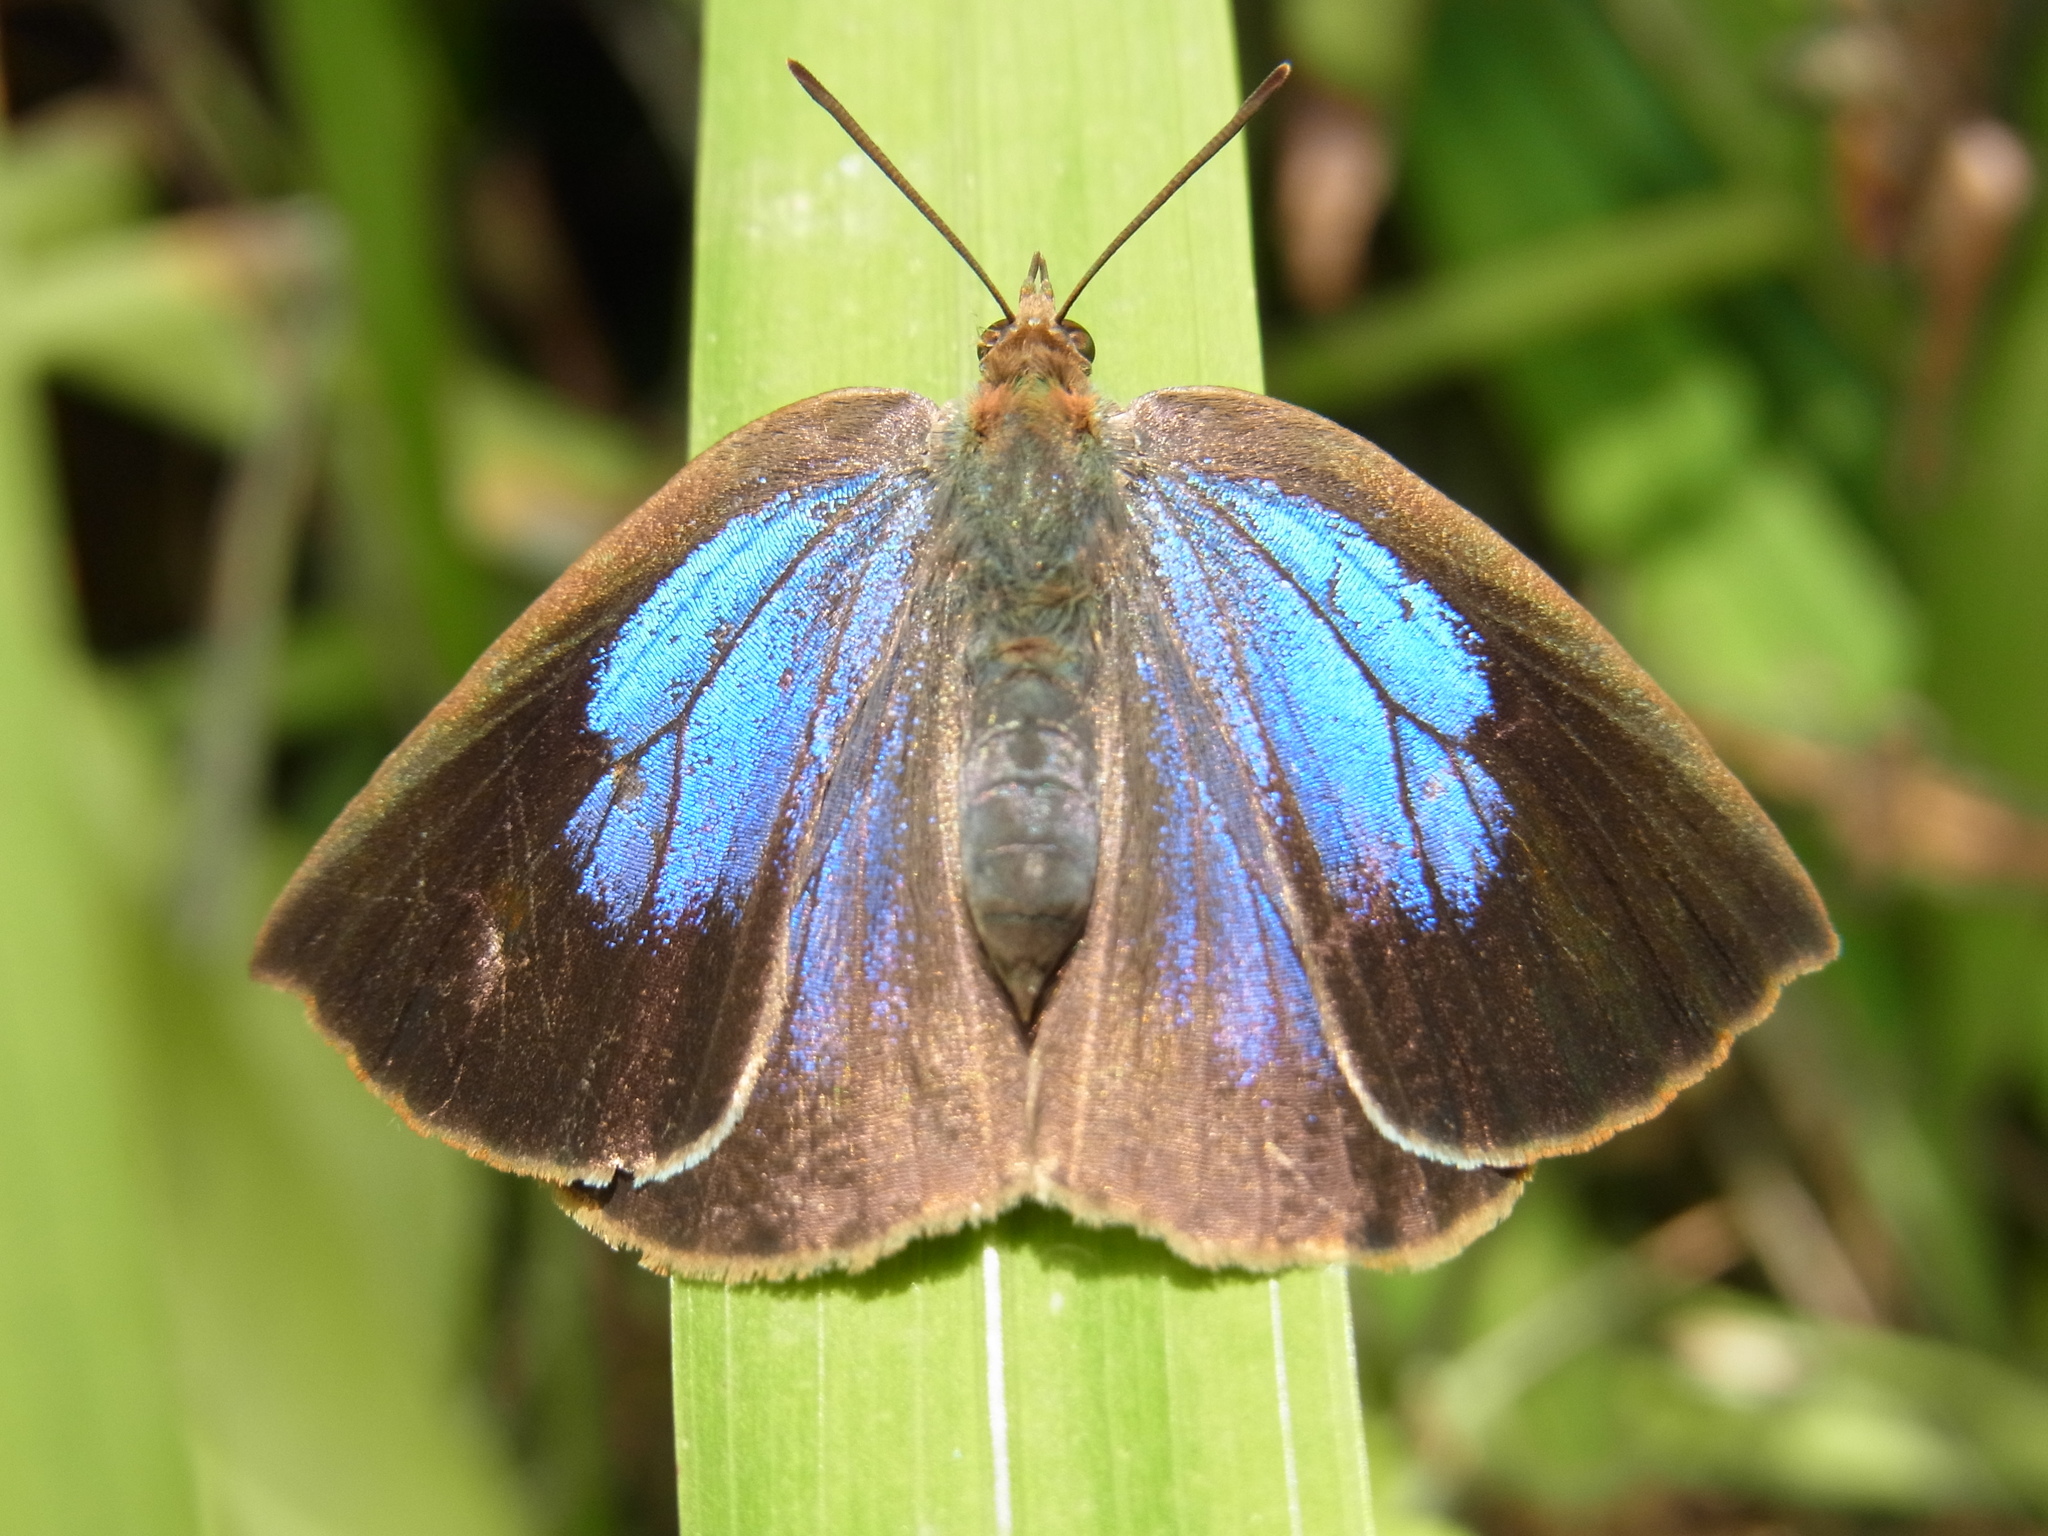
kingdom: Animalia
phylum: Arthropoda
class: Insecta
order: Lepidoptera
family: Lycaenidae
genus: Arhopala
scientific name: Arhopala japonica
